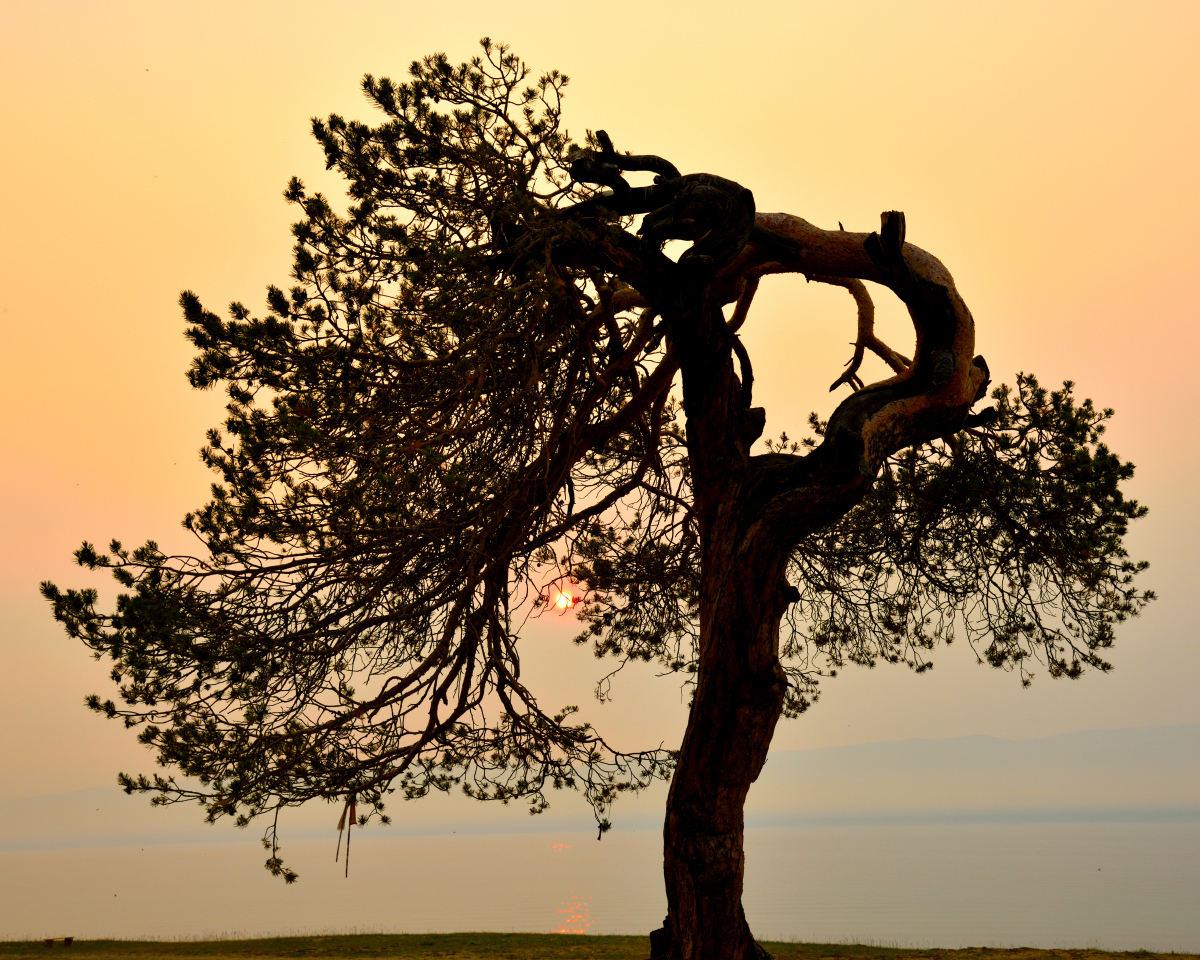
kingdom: Plantae
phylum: Tracheophyta
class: Pinopsida
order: Pinales
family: Pinaceae
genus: Pinus
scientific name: Pinus sylvestris
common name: Scots pine
